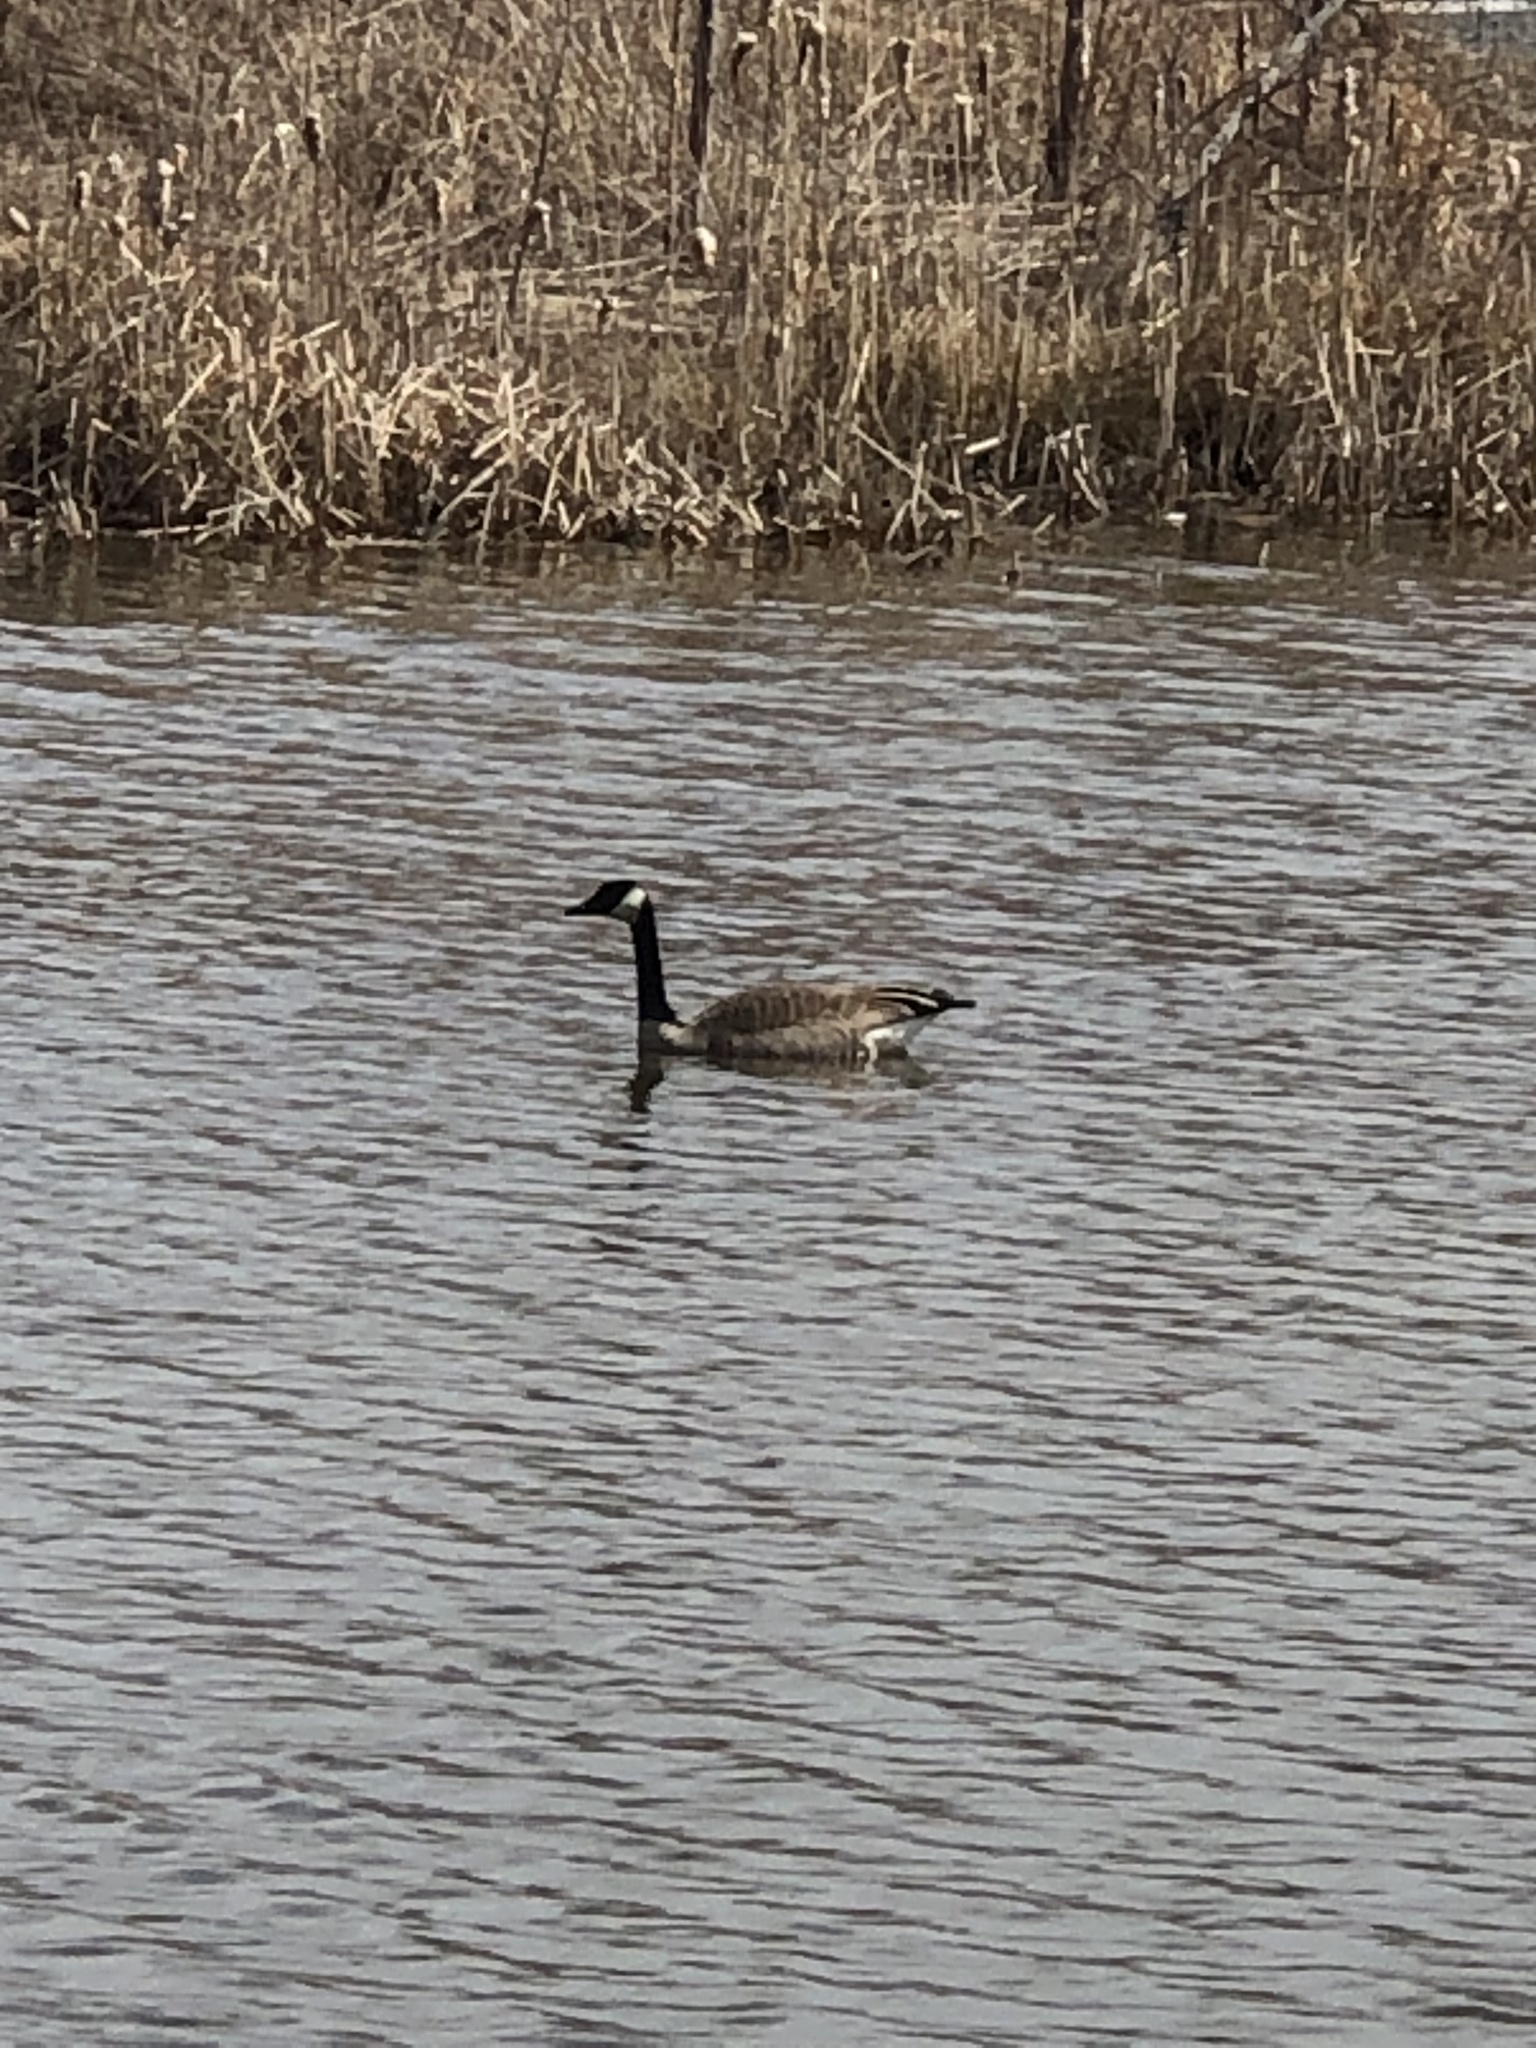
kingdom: Animalia
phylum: Chordata
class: Aves
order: Anseriformes
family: Anatidae
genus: Branta
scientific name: Branta canadensis
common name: Canada goose
